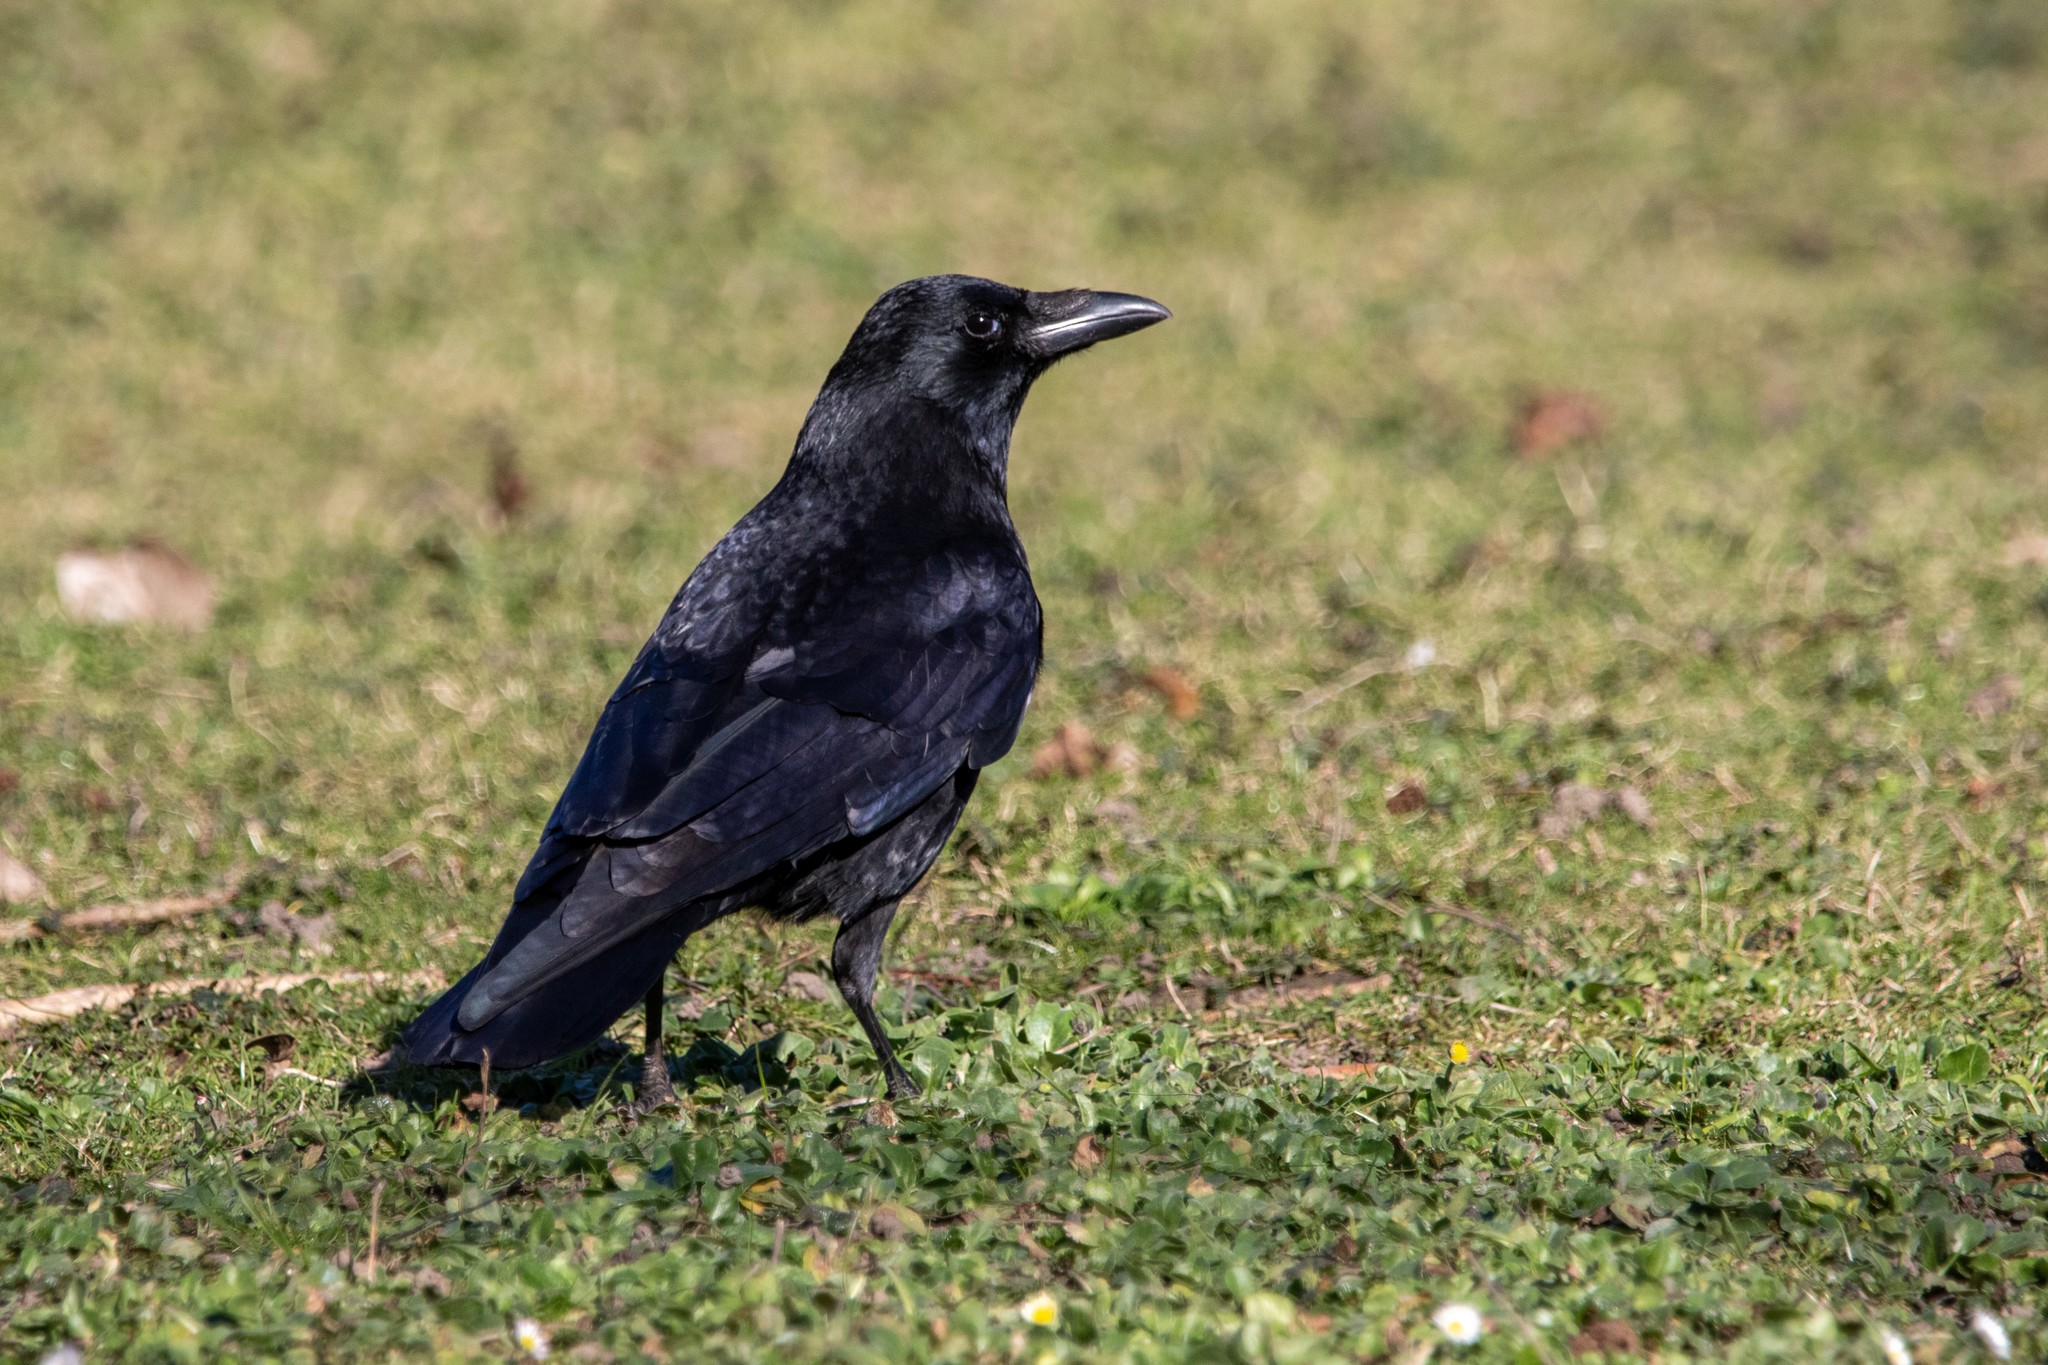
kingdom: Animalia
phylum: Chordata
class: Aves
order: Passeriformes
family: Corvidae
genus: Corvus
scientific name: Corvus corone
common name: Carrion crow
